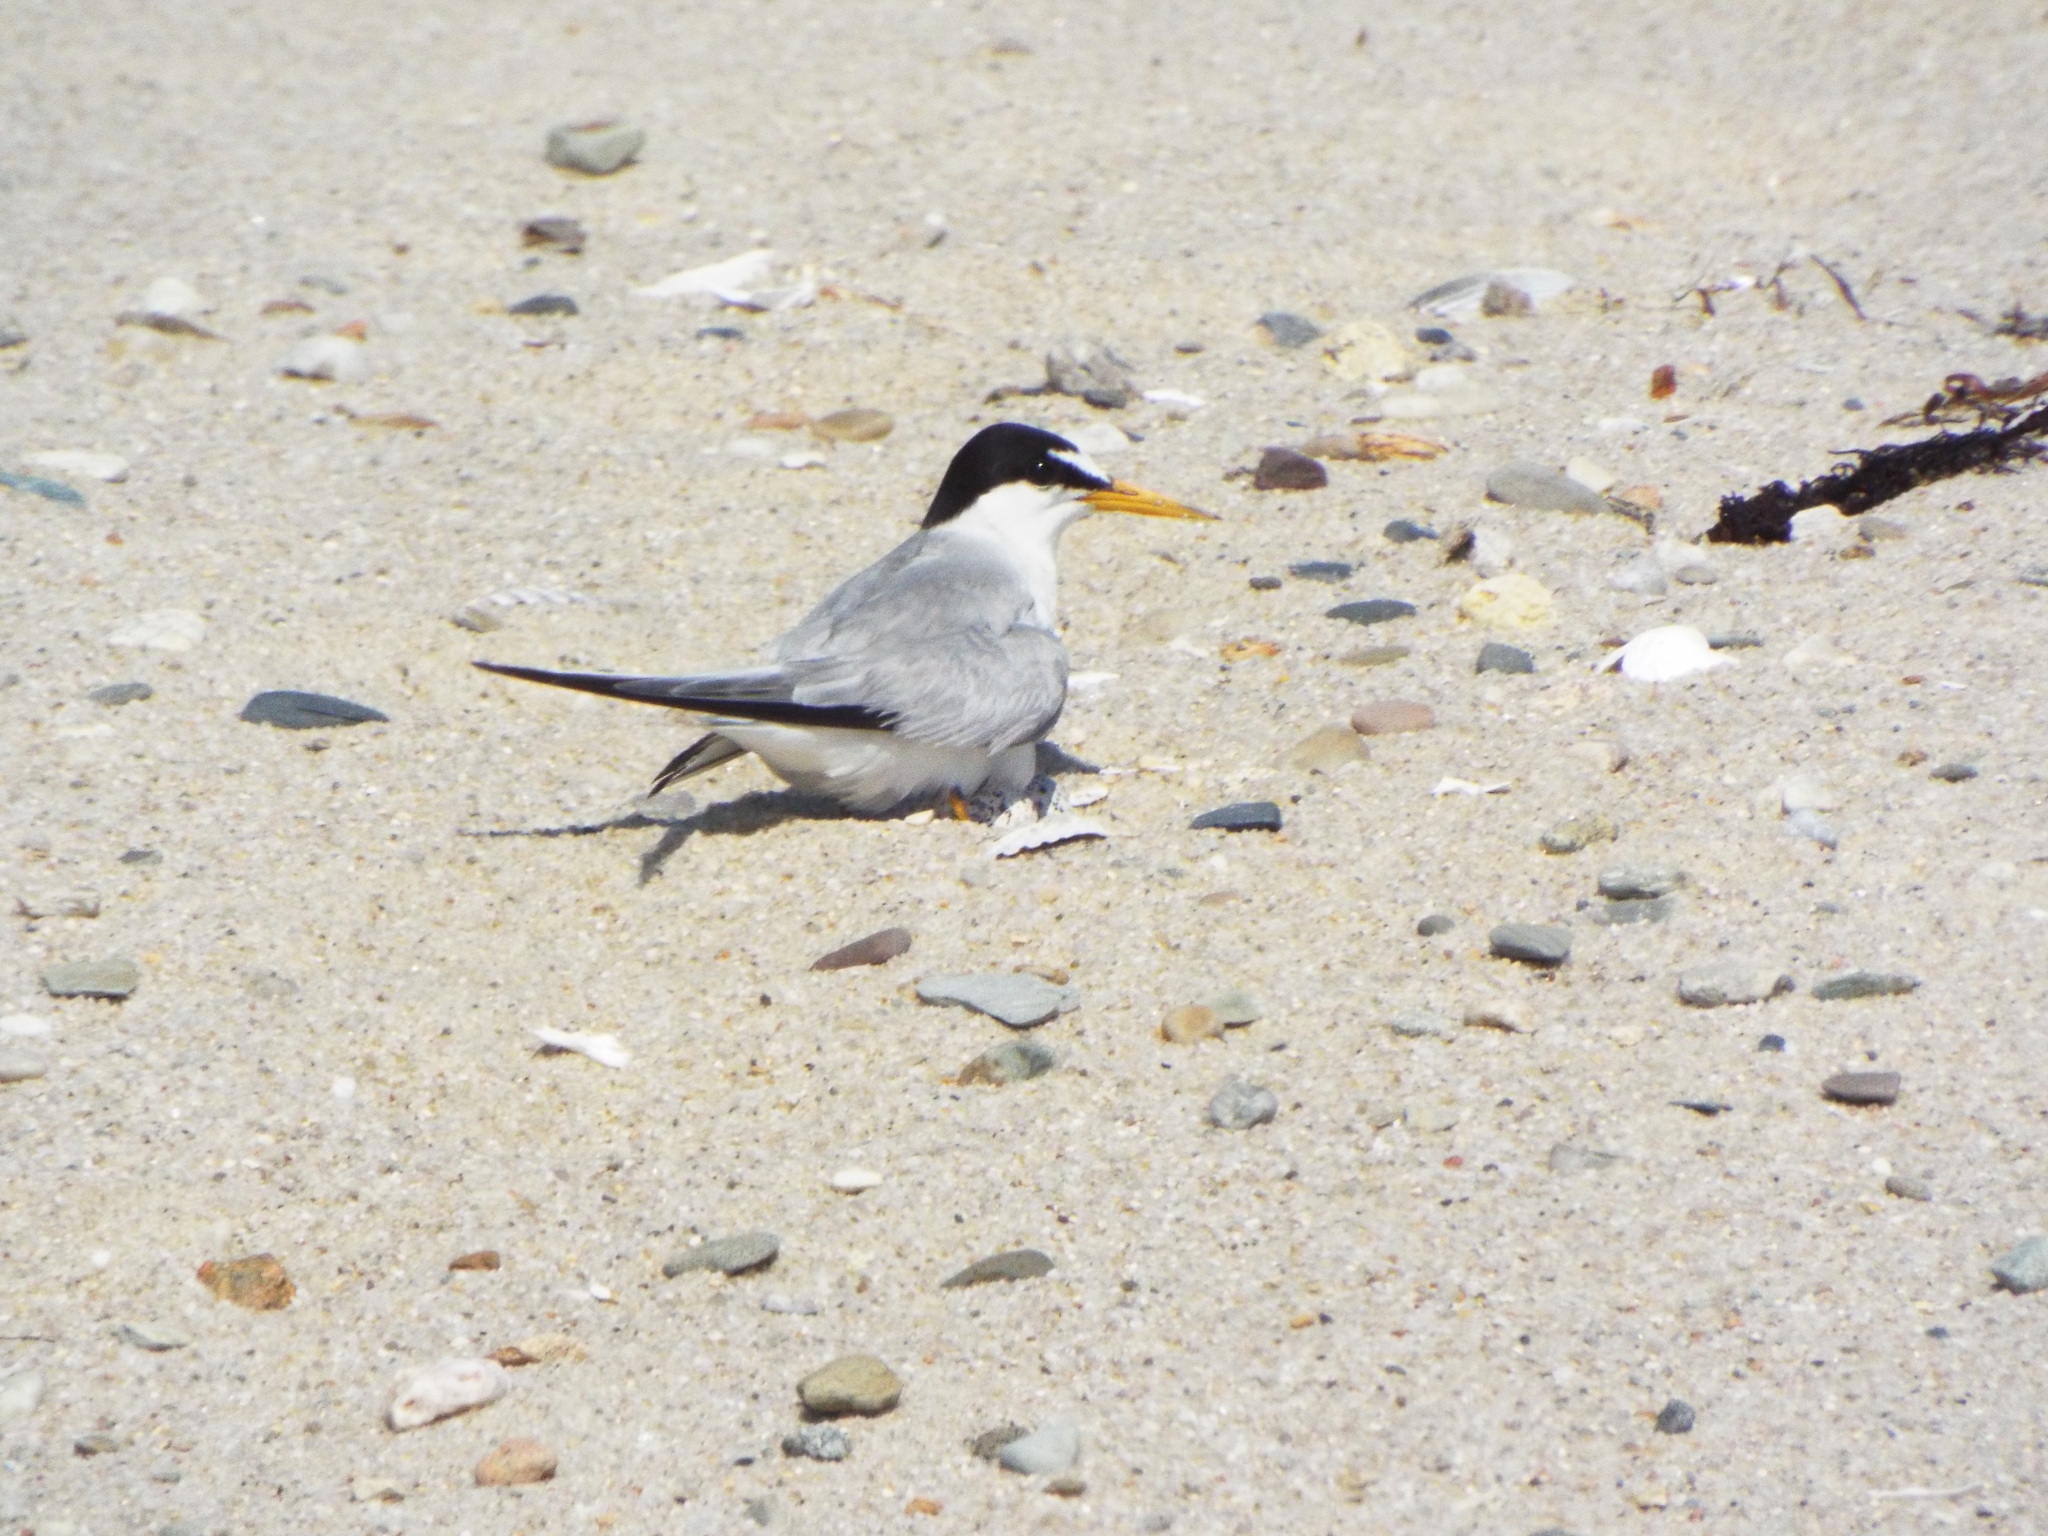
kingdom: Animalia
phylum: Chordata
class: Aves
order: Charadriiformes
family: Laridae
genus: Sternula
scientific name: Sternula antillarum
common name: Least tern
